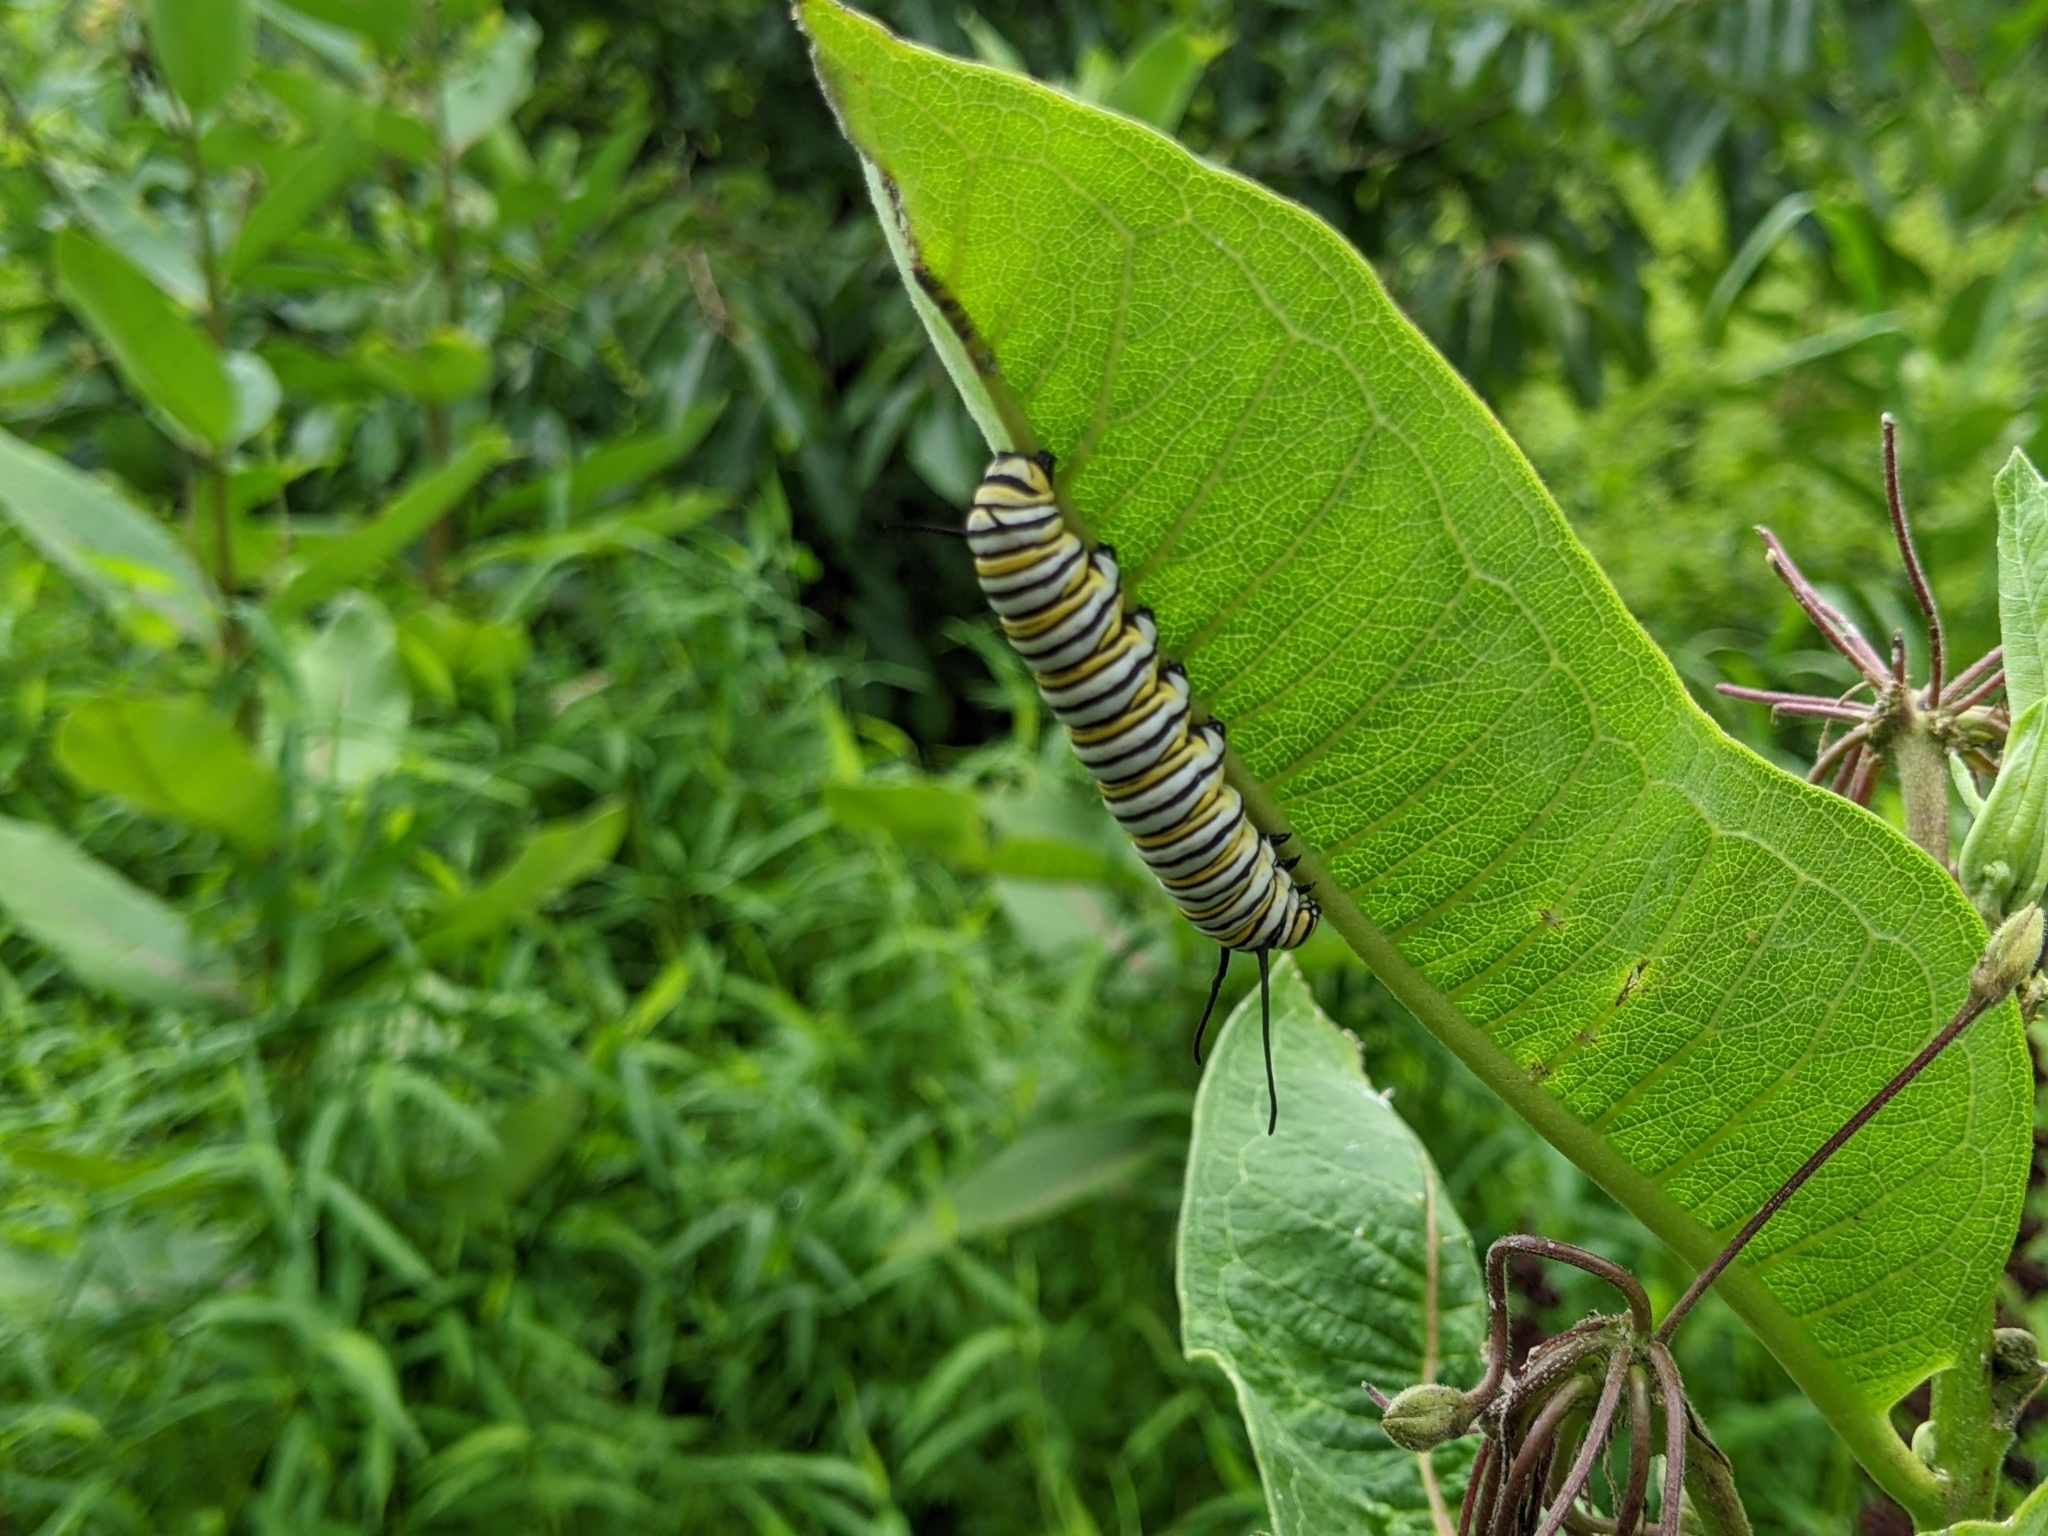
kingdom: Animalia
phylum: Arthropoda
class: Insecta
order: Lepidoptera
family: Nymphalidae
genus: Danaus
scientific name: Danaus plexippus
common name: Monarch
